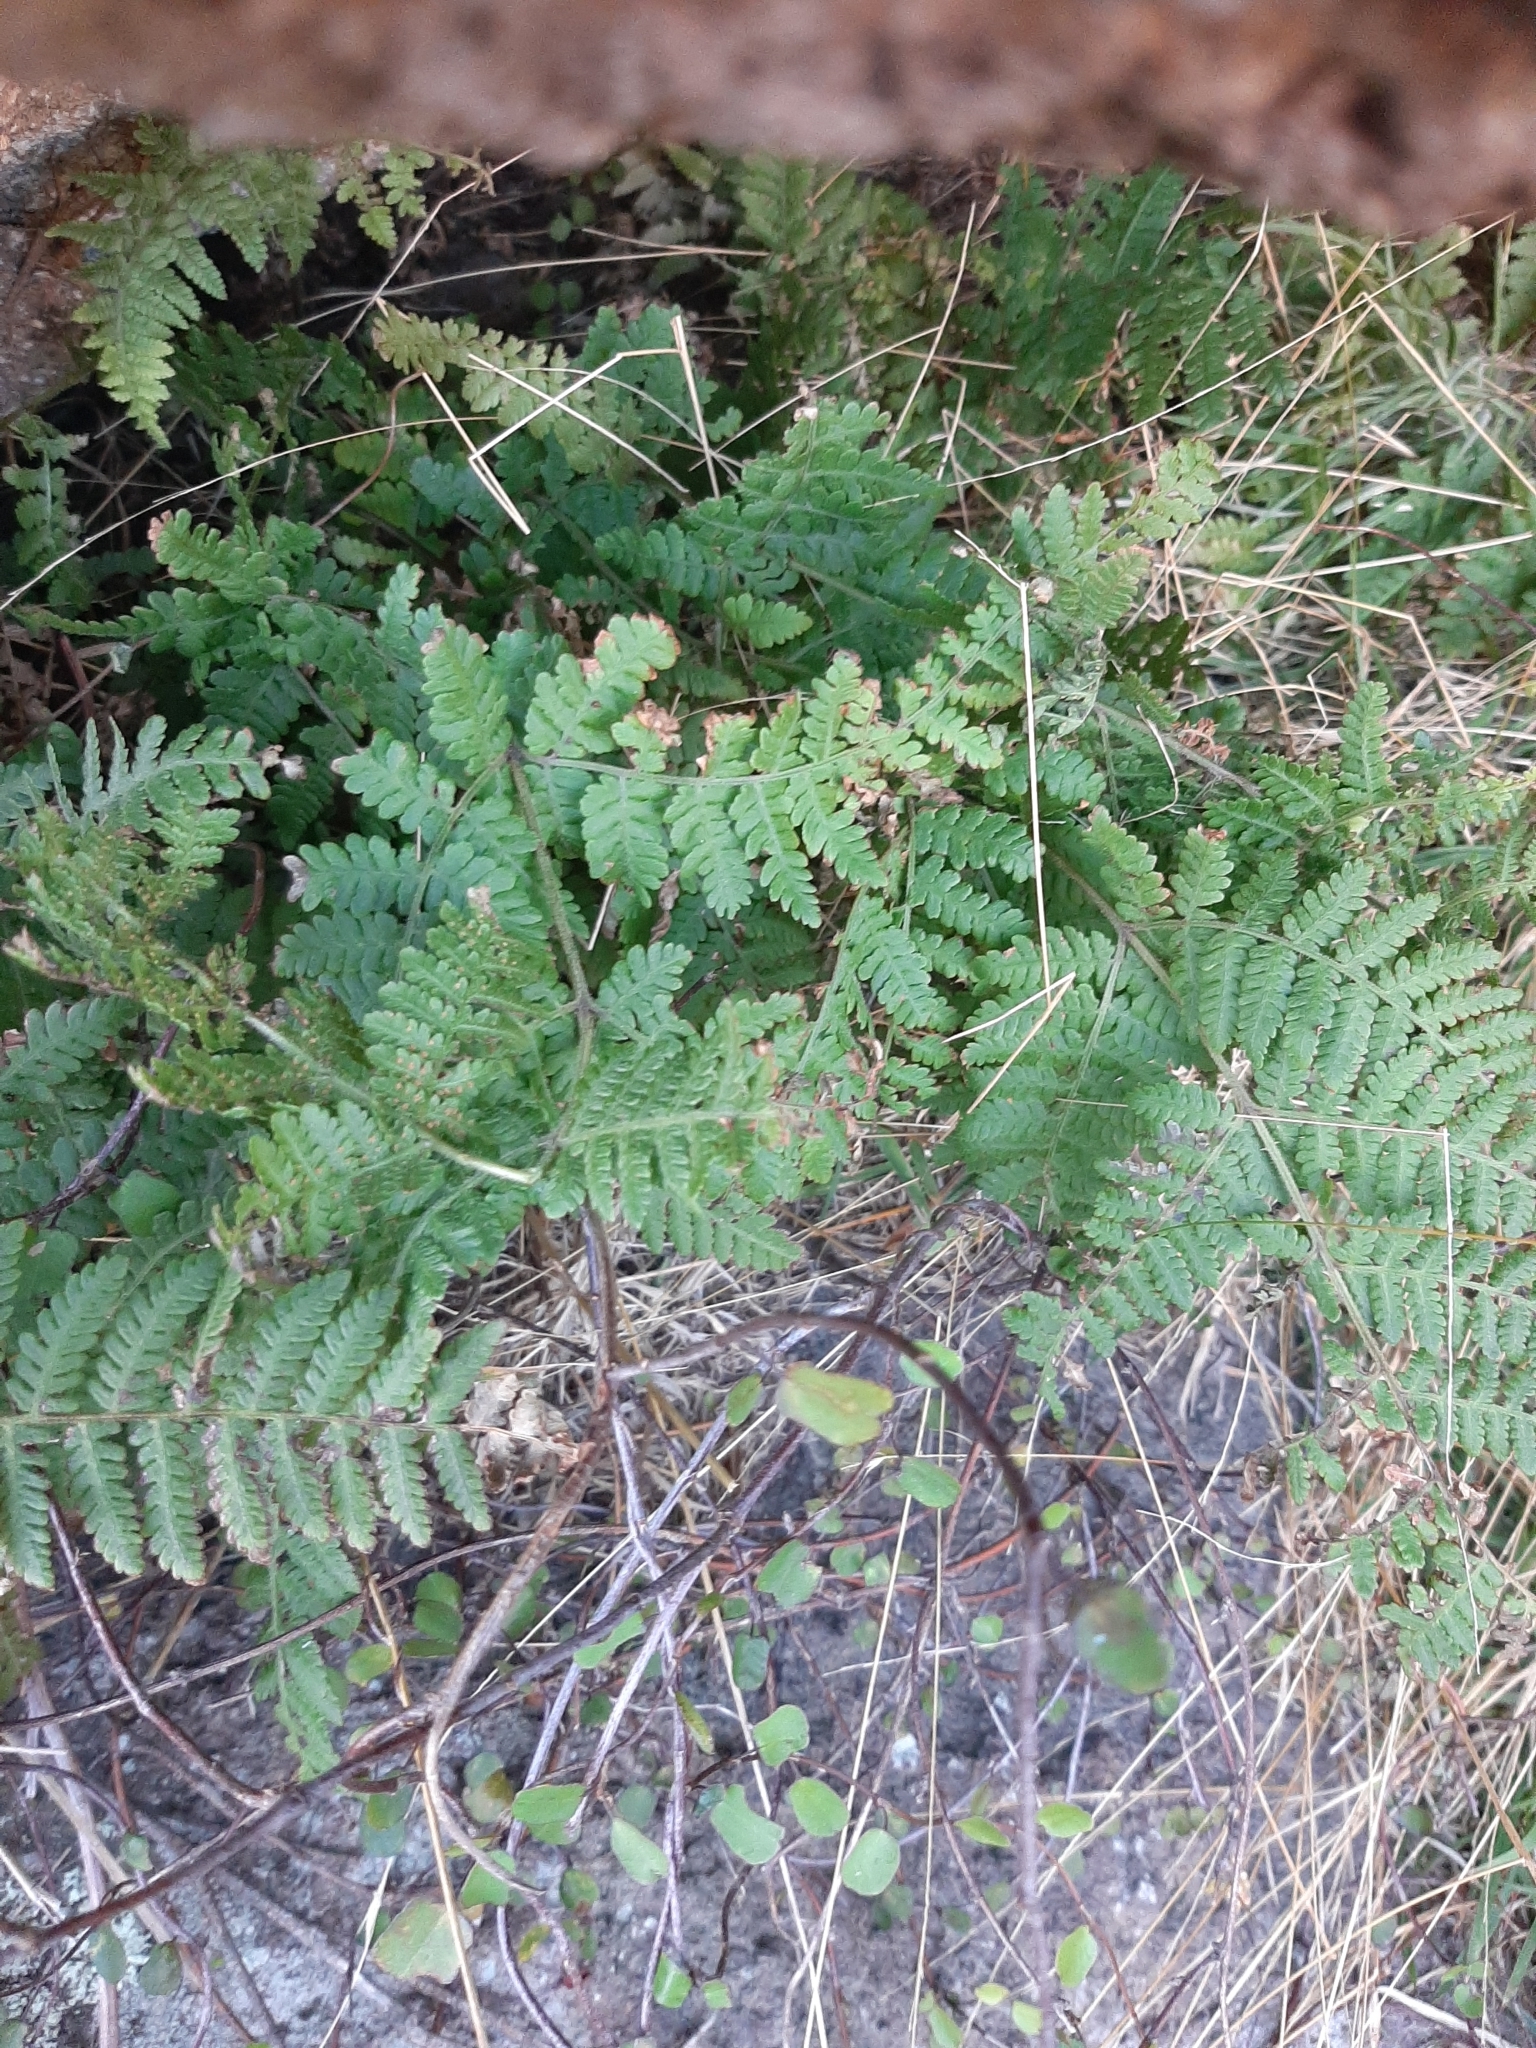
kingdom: Plantae
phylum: Tracheophyta
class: Polypodiopsida
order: Polypodiales
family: Dennstaedtiaceae
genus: Hypolepis
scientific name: Hypolepis ambigua
